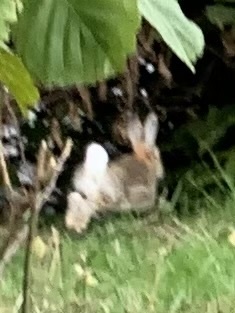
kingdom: Animalia
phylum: Chordata
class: Mammalia
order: Lagomorpha
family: Leporidae
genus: Oryctolagus
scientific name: Oryctolagus cuniculus
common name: European rabbit
